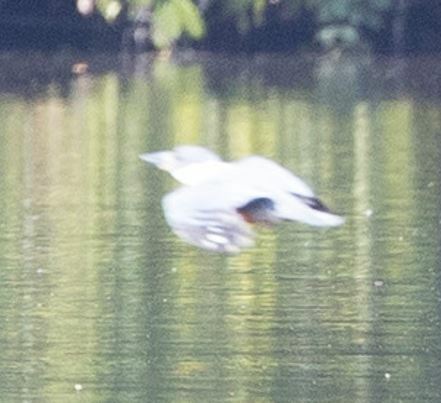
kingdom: Animalia
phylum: Chordata
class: Aves
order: Coraciiformes
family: Alcedinidae
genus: Megaceryle
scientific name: Megaceryle torquata
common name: Ringed kingfisher
